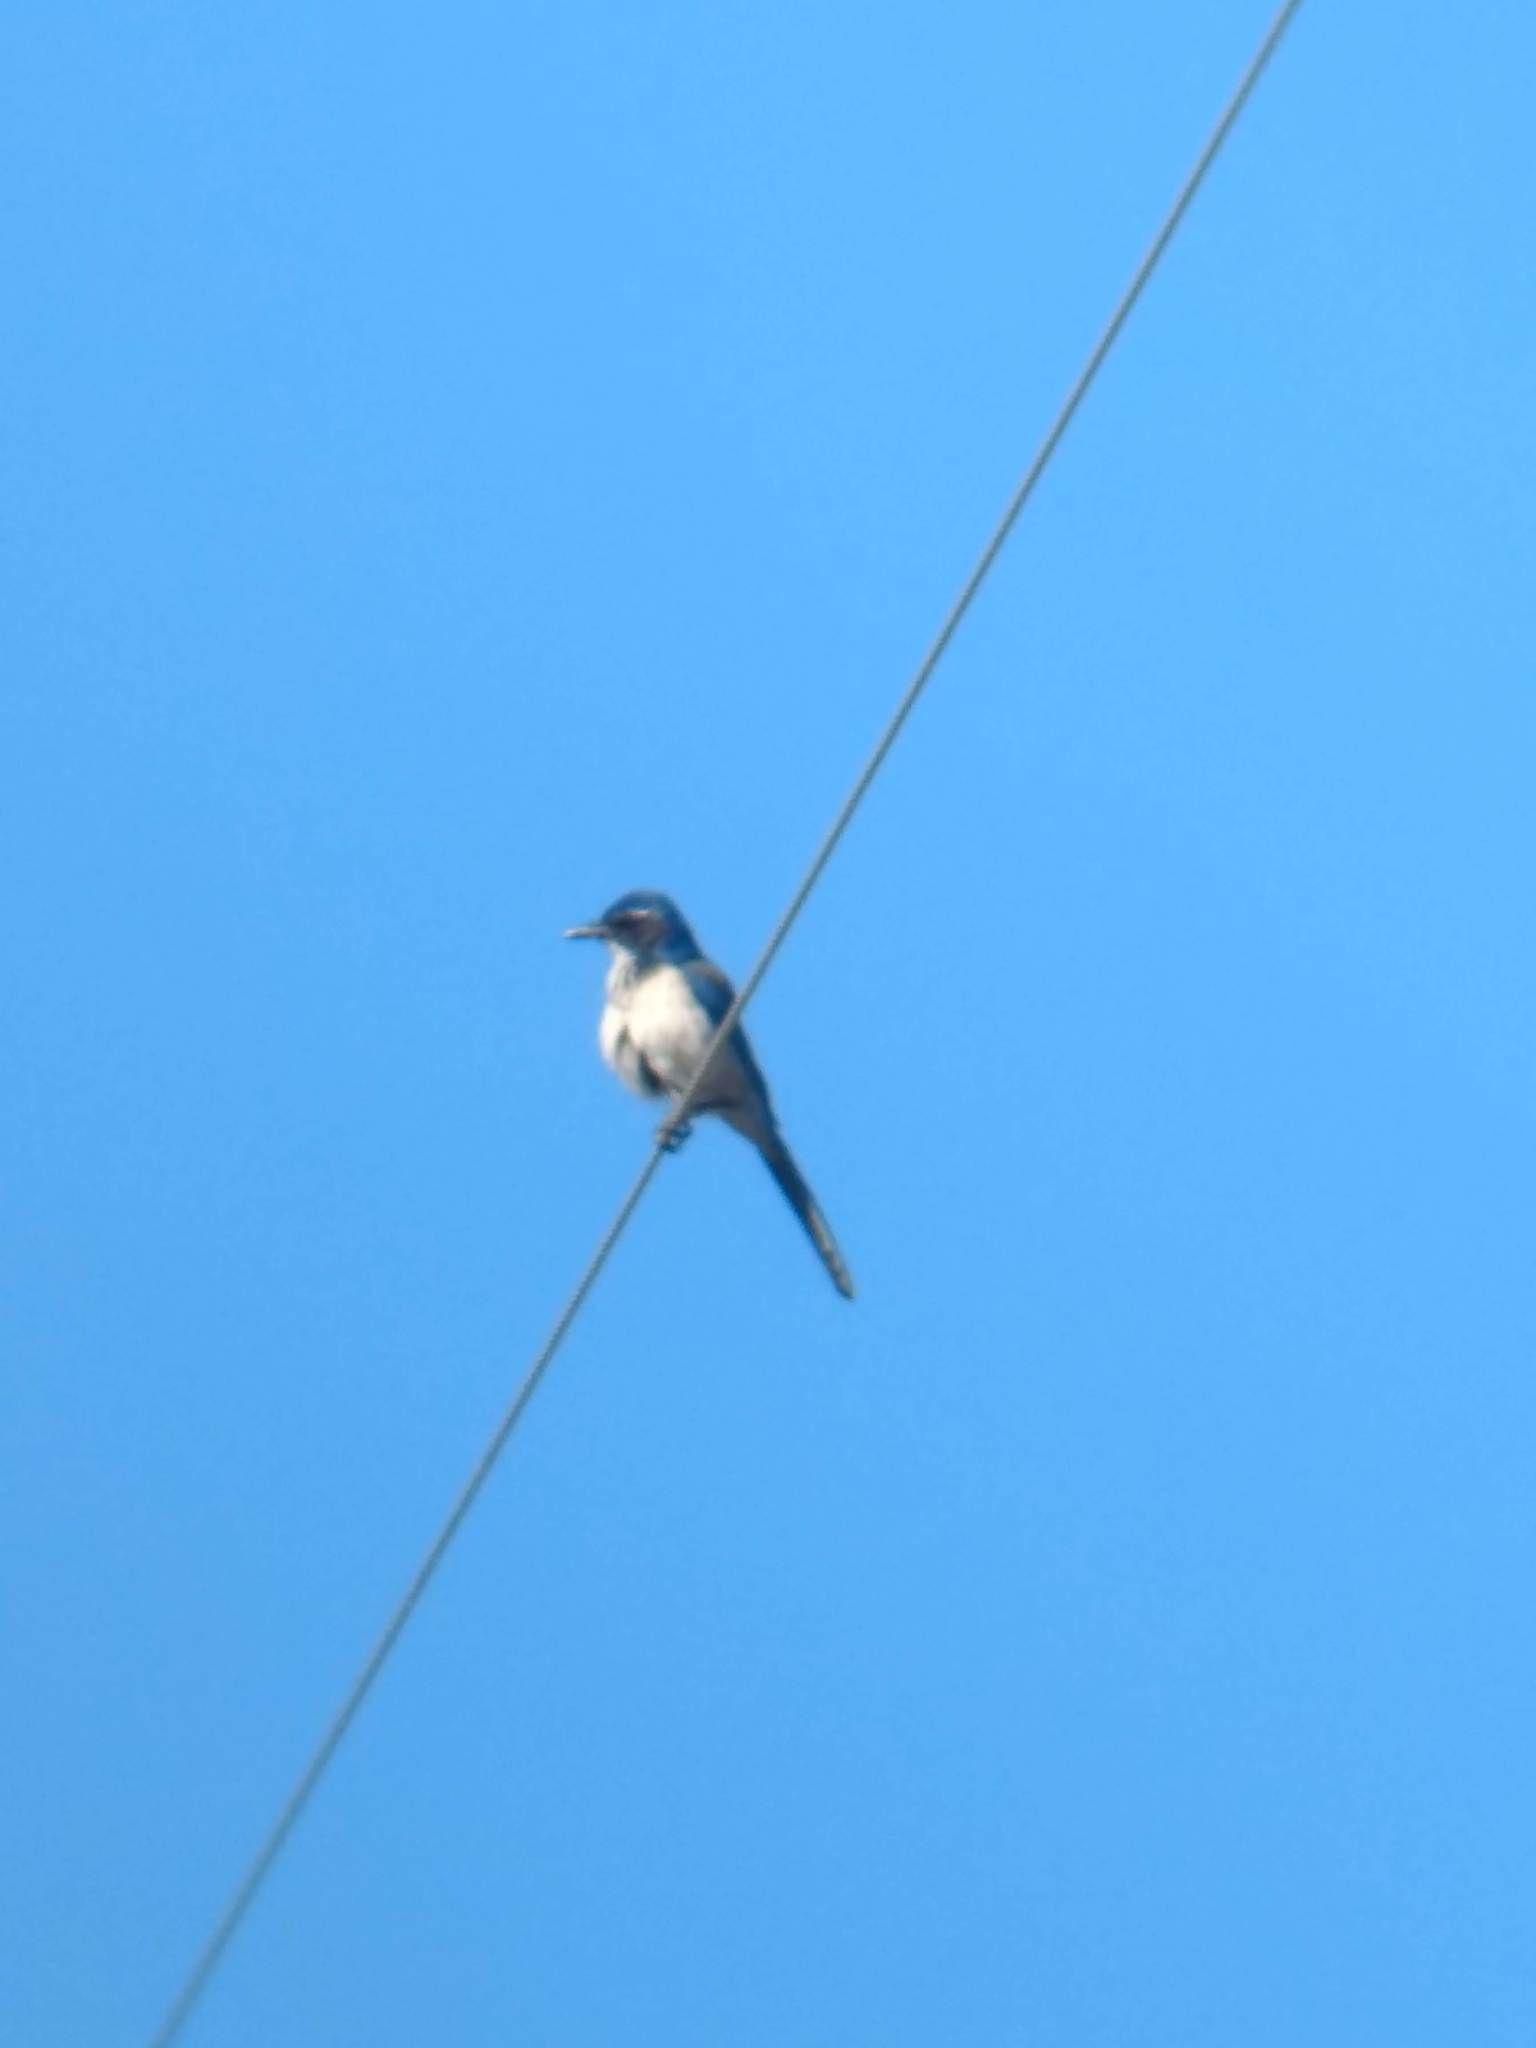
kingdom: Animalia
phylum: Chordata
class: Aves
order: Passeriformes
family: Corvidae
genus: Aphelocoma
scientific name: Aphelocoma californica
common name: California scrub-jay
